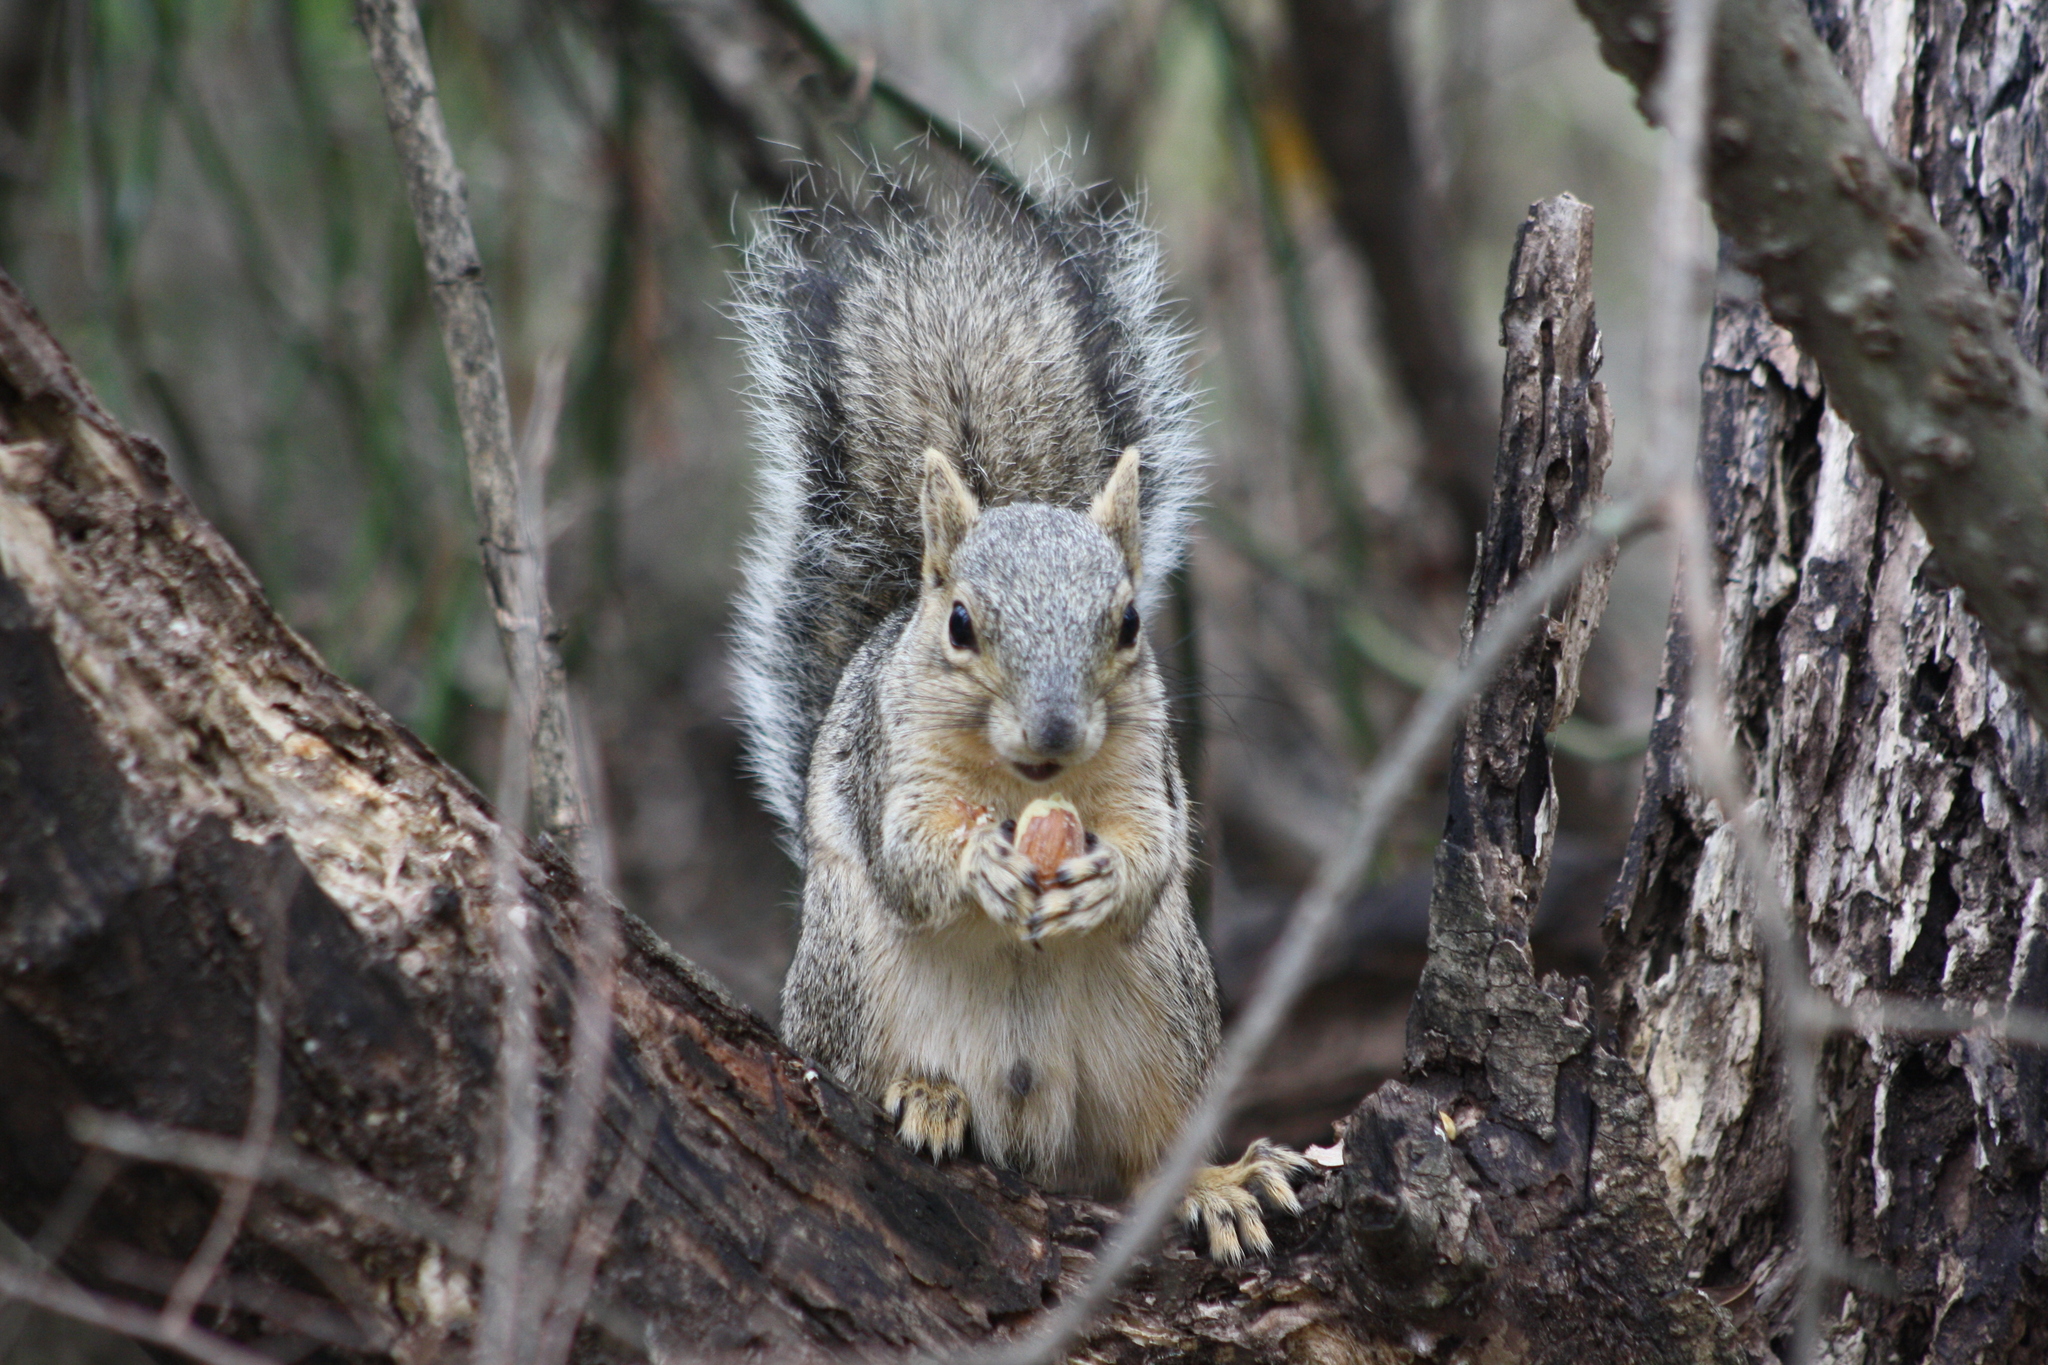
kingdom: Animalia
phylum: Chordata
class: Mammalia
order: Rodentia
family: Sciuridae
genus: Sciurus
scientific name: Sciurus niger
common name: Fox squirrel
